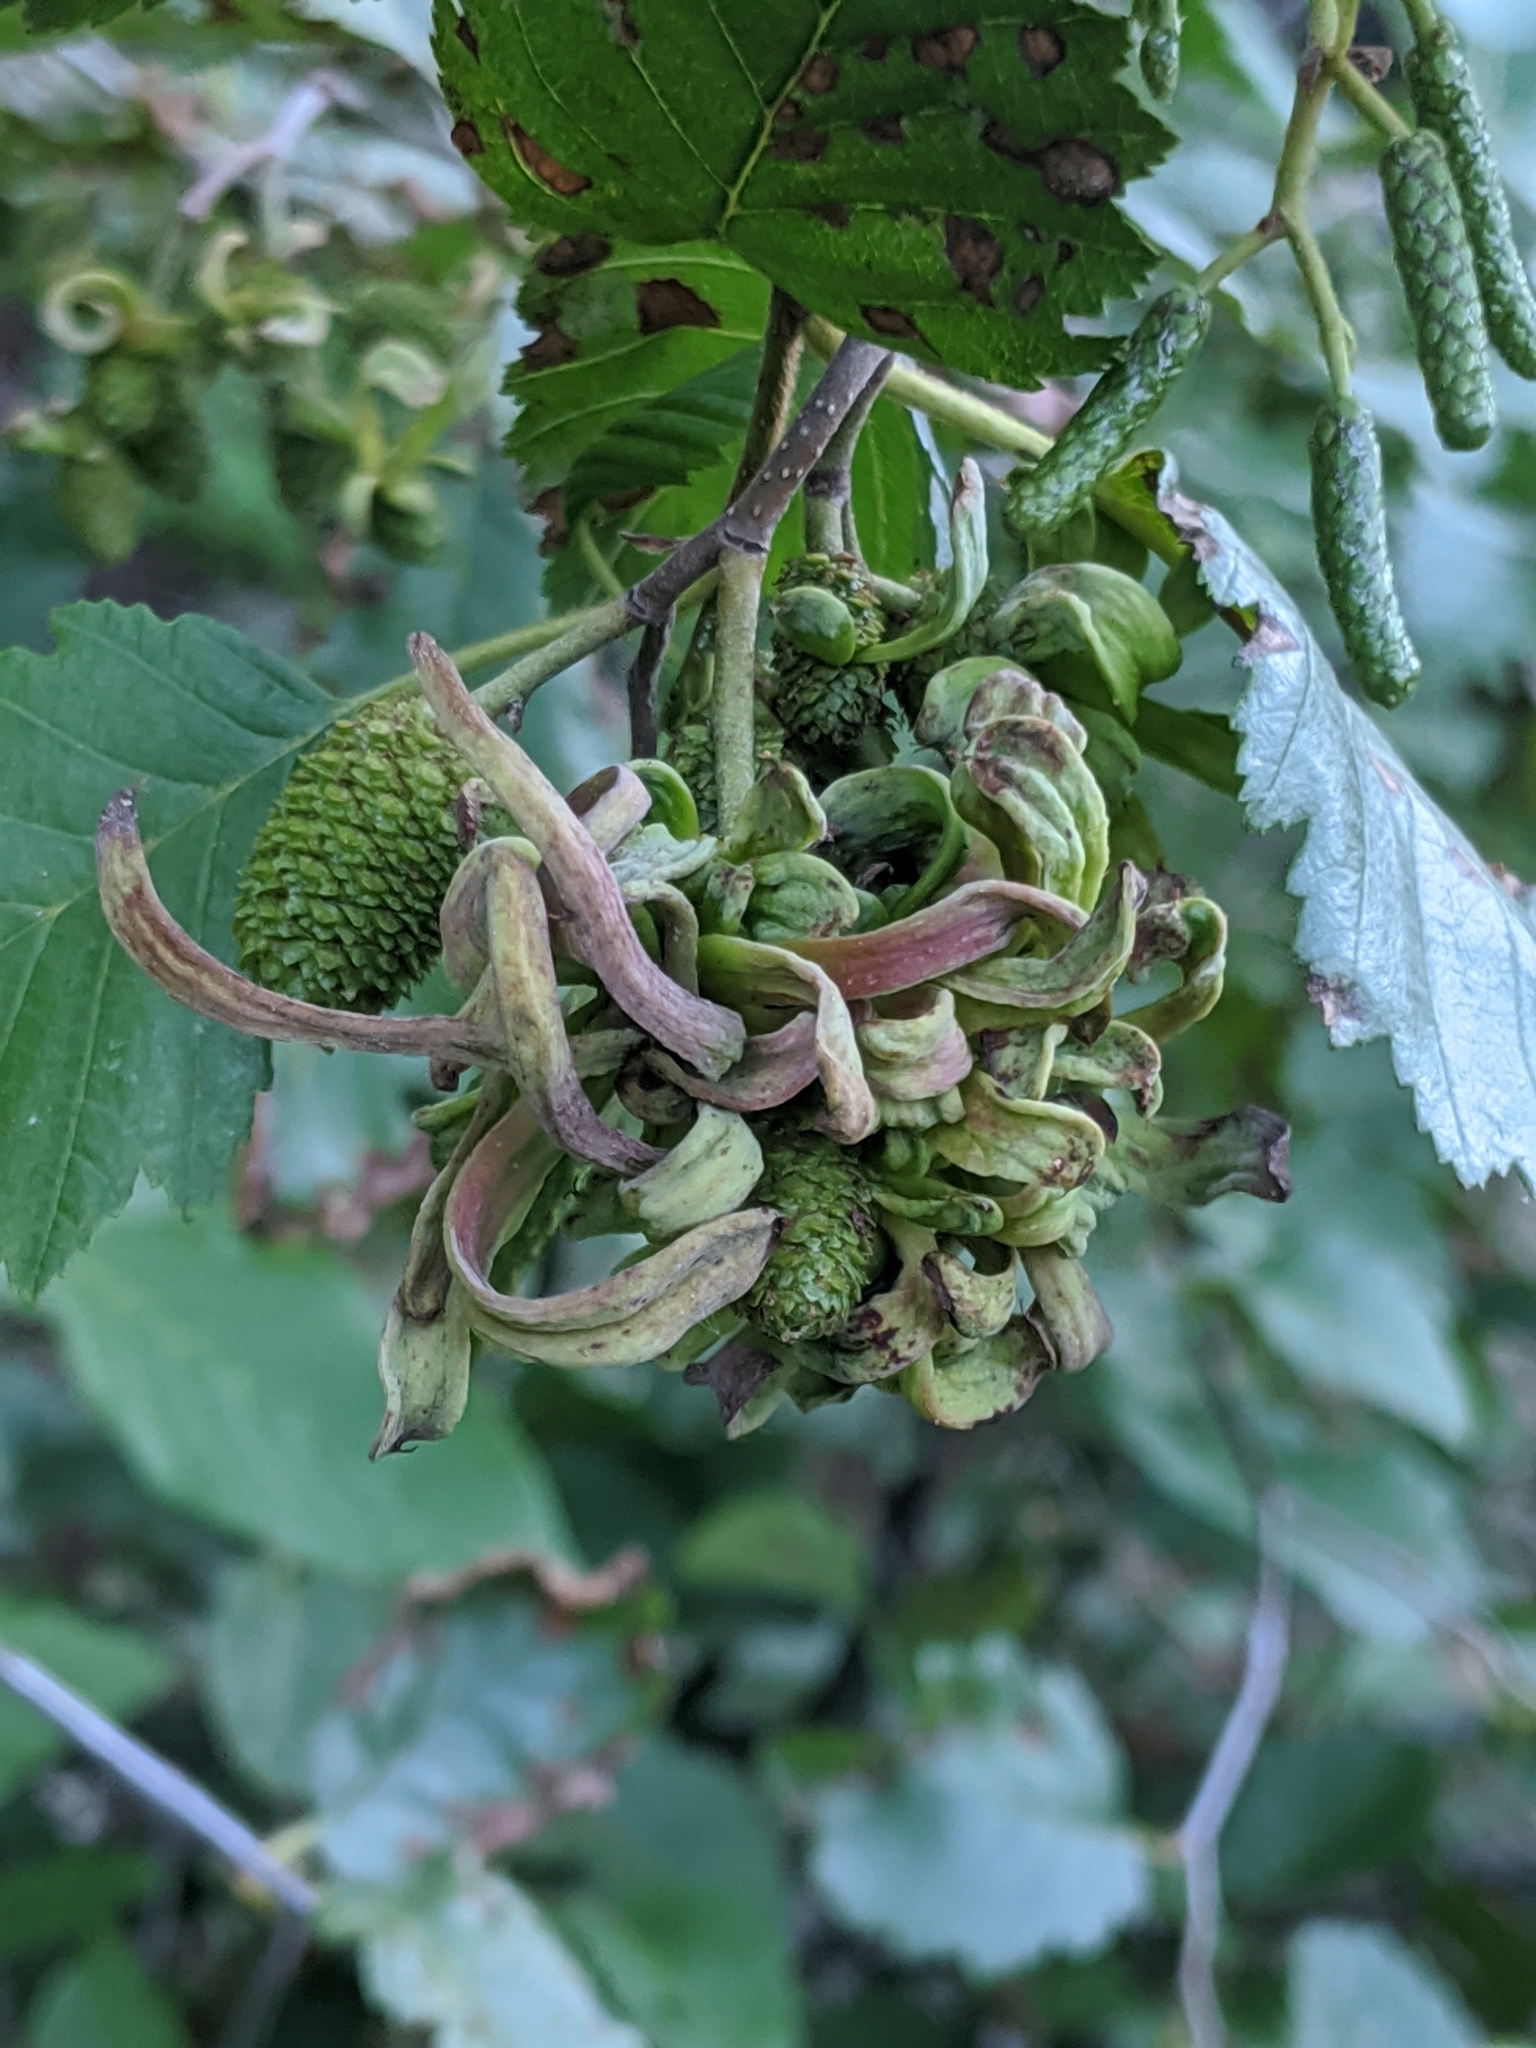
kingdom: Fungi
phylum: Ascomycota
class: Taphrinomycetes
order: Taphrinales
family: Taphrinaceae
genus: Taphrina
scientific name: Taphrina occidentalis
